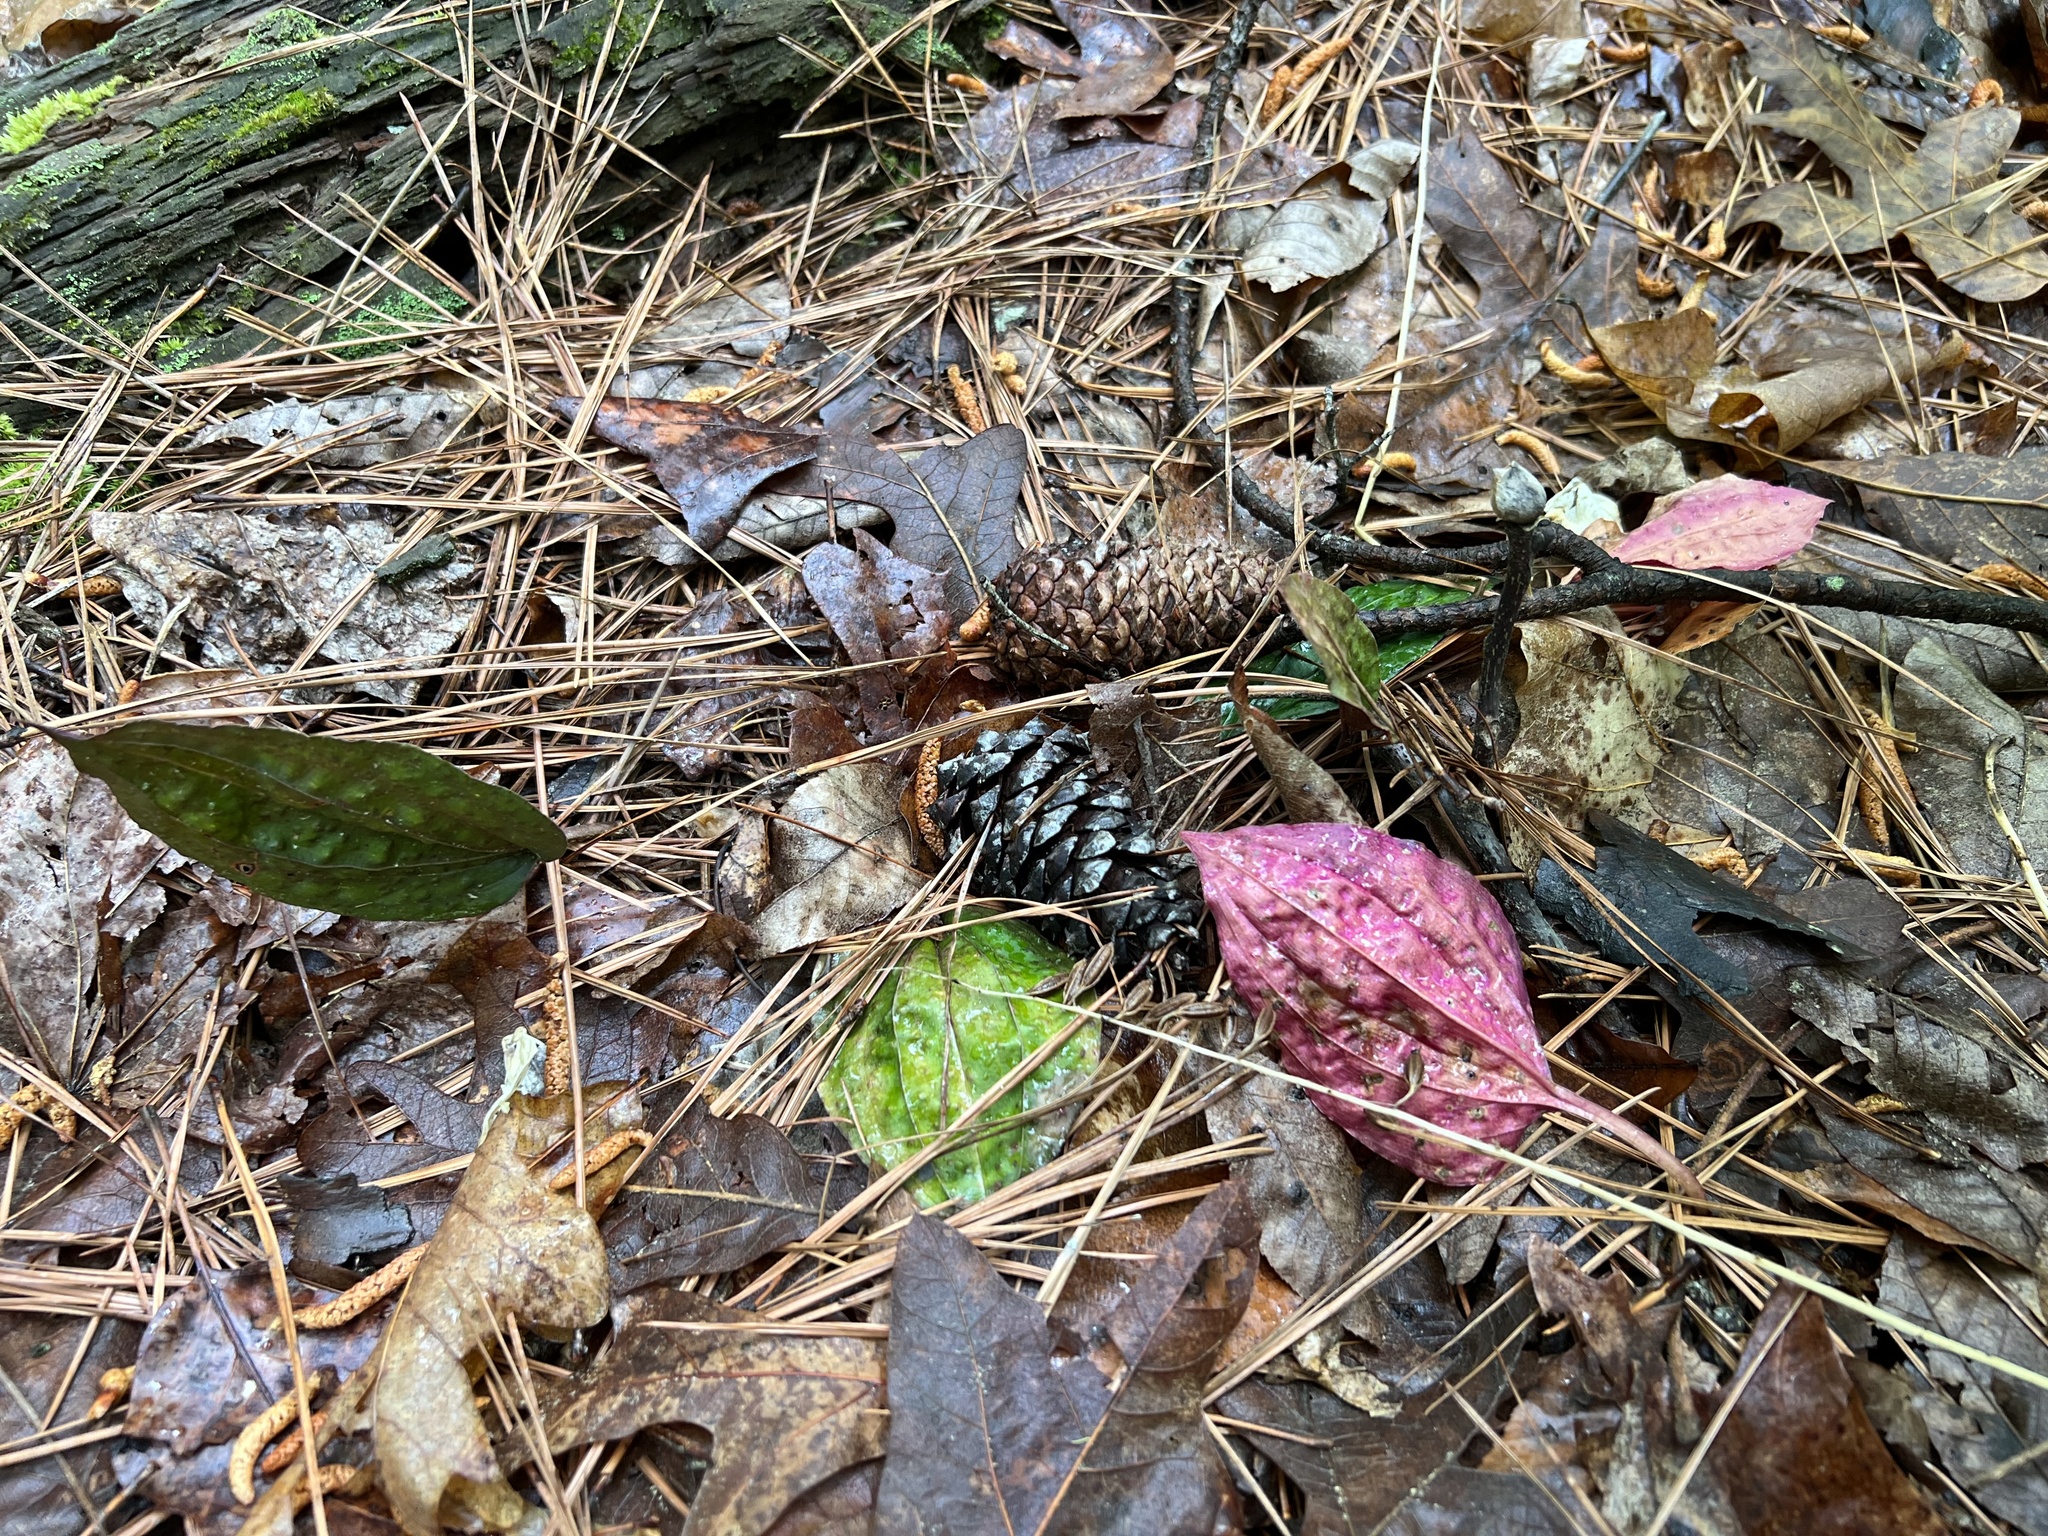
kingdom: Plantae
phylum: Tracheophyta
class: Liliopsida
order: Asparagales
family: Orchidaceae
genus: Tipularia
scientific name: Tipularia discolor
